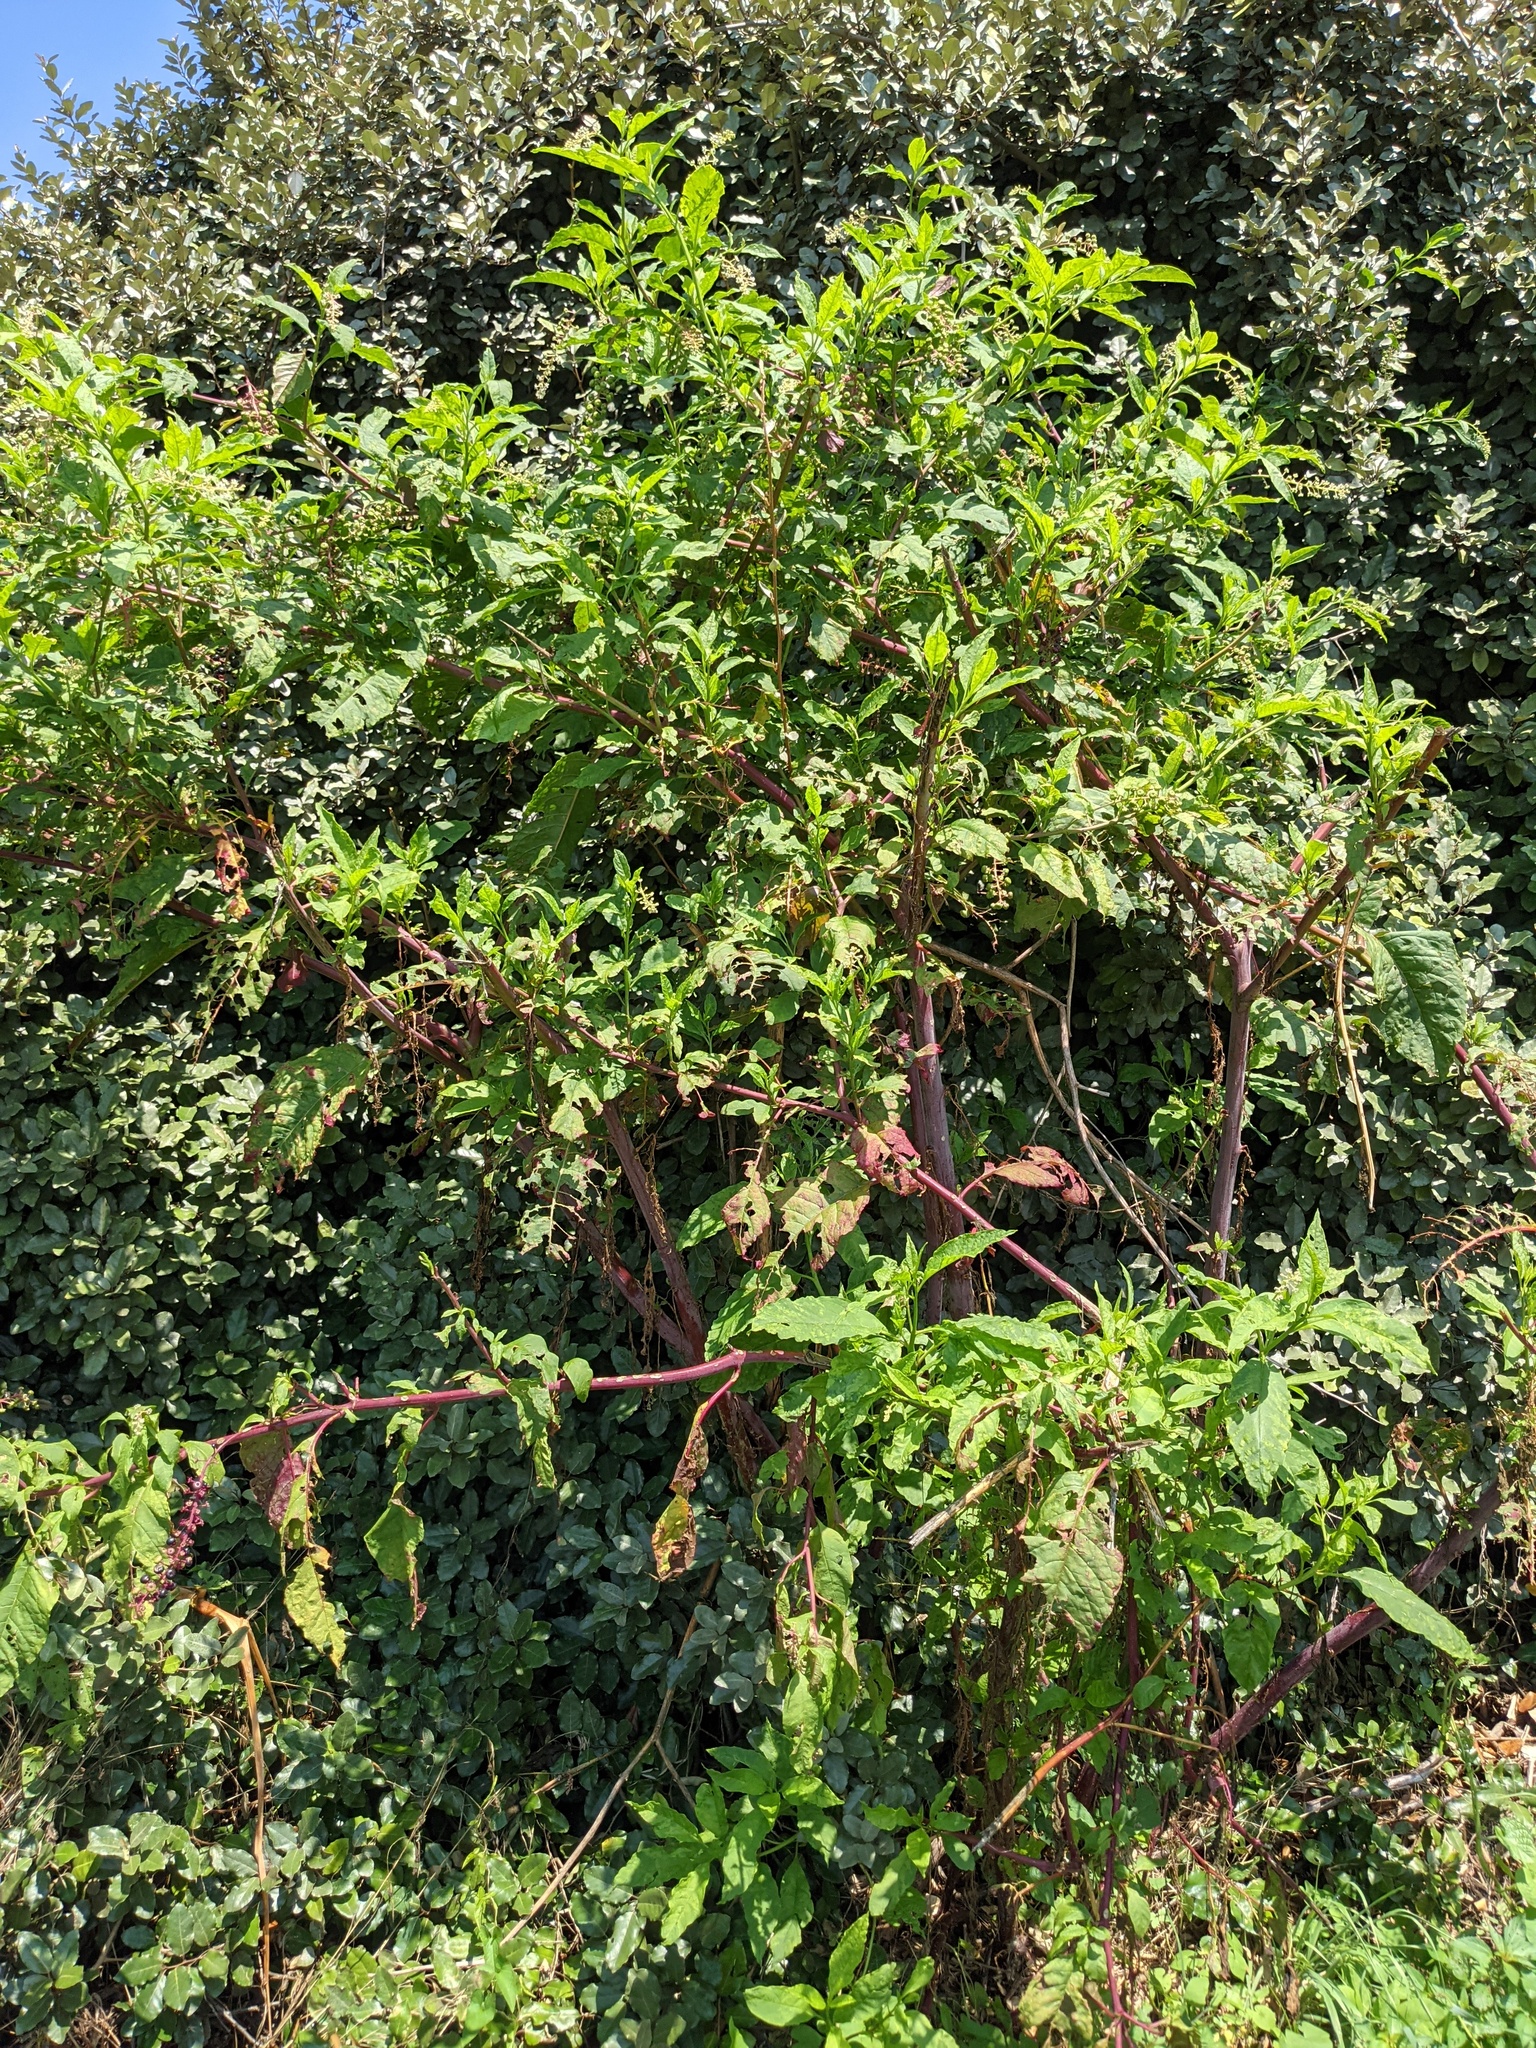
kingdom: Plantae
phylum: Tracheophyta
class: Magnoliopsida
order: Caryophyllales
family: Phytolaccaceae
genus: Phytolacca
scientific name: Phytolacca americana
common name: American pokeweed
